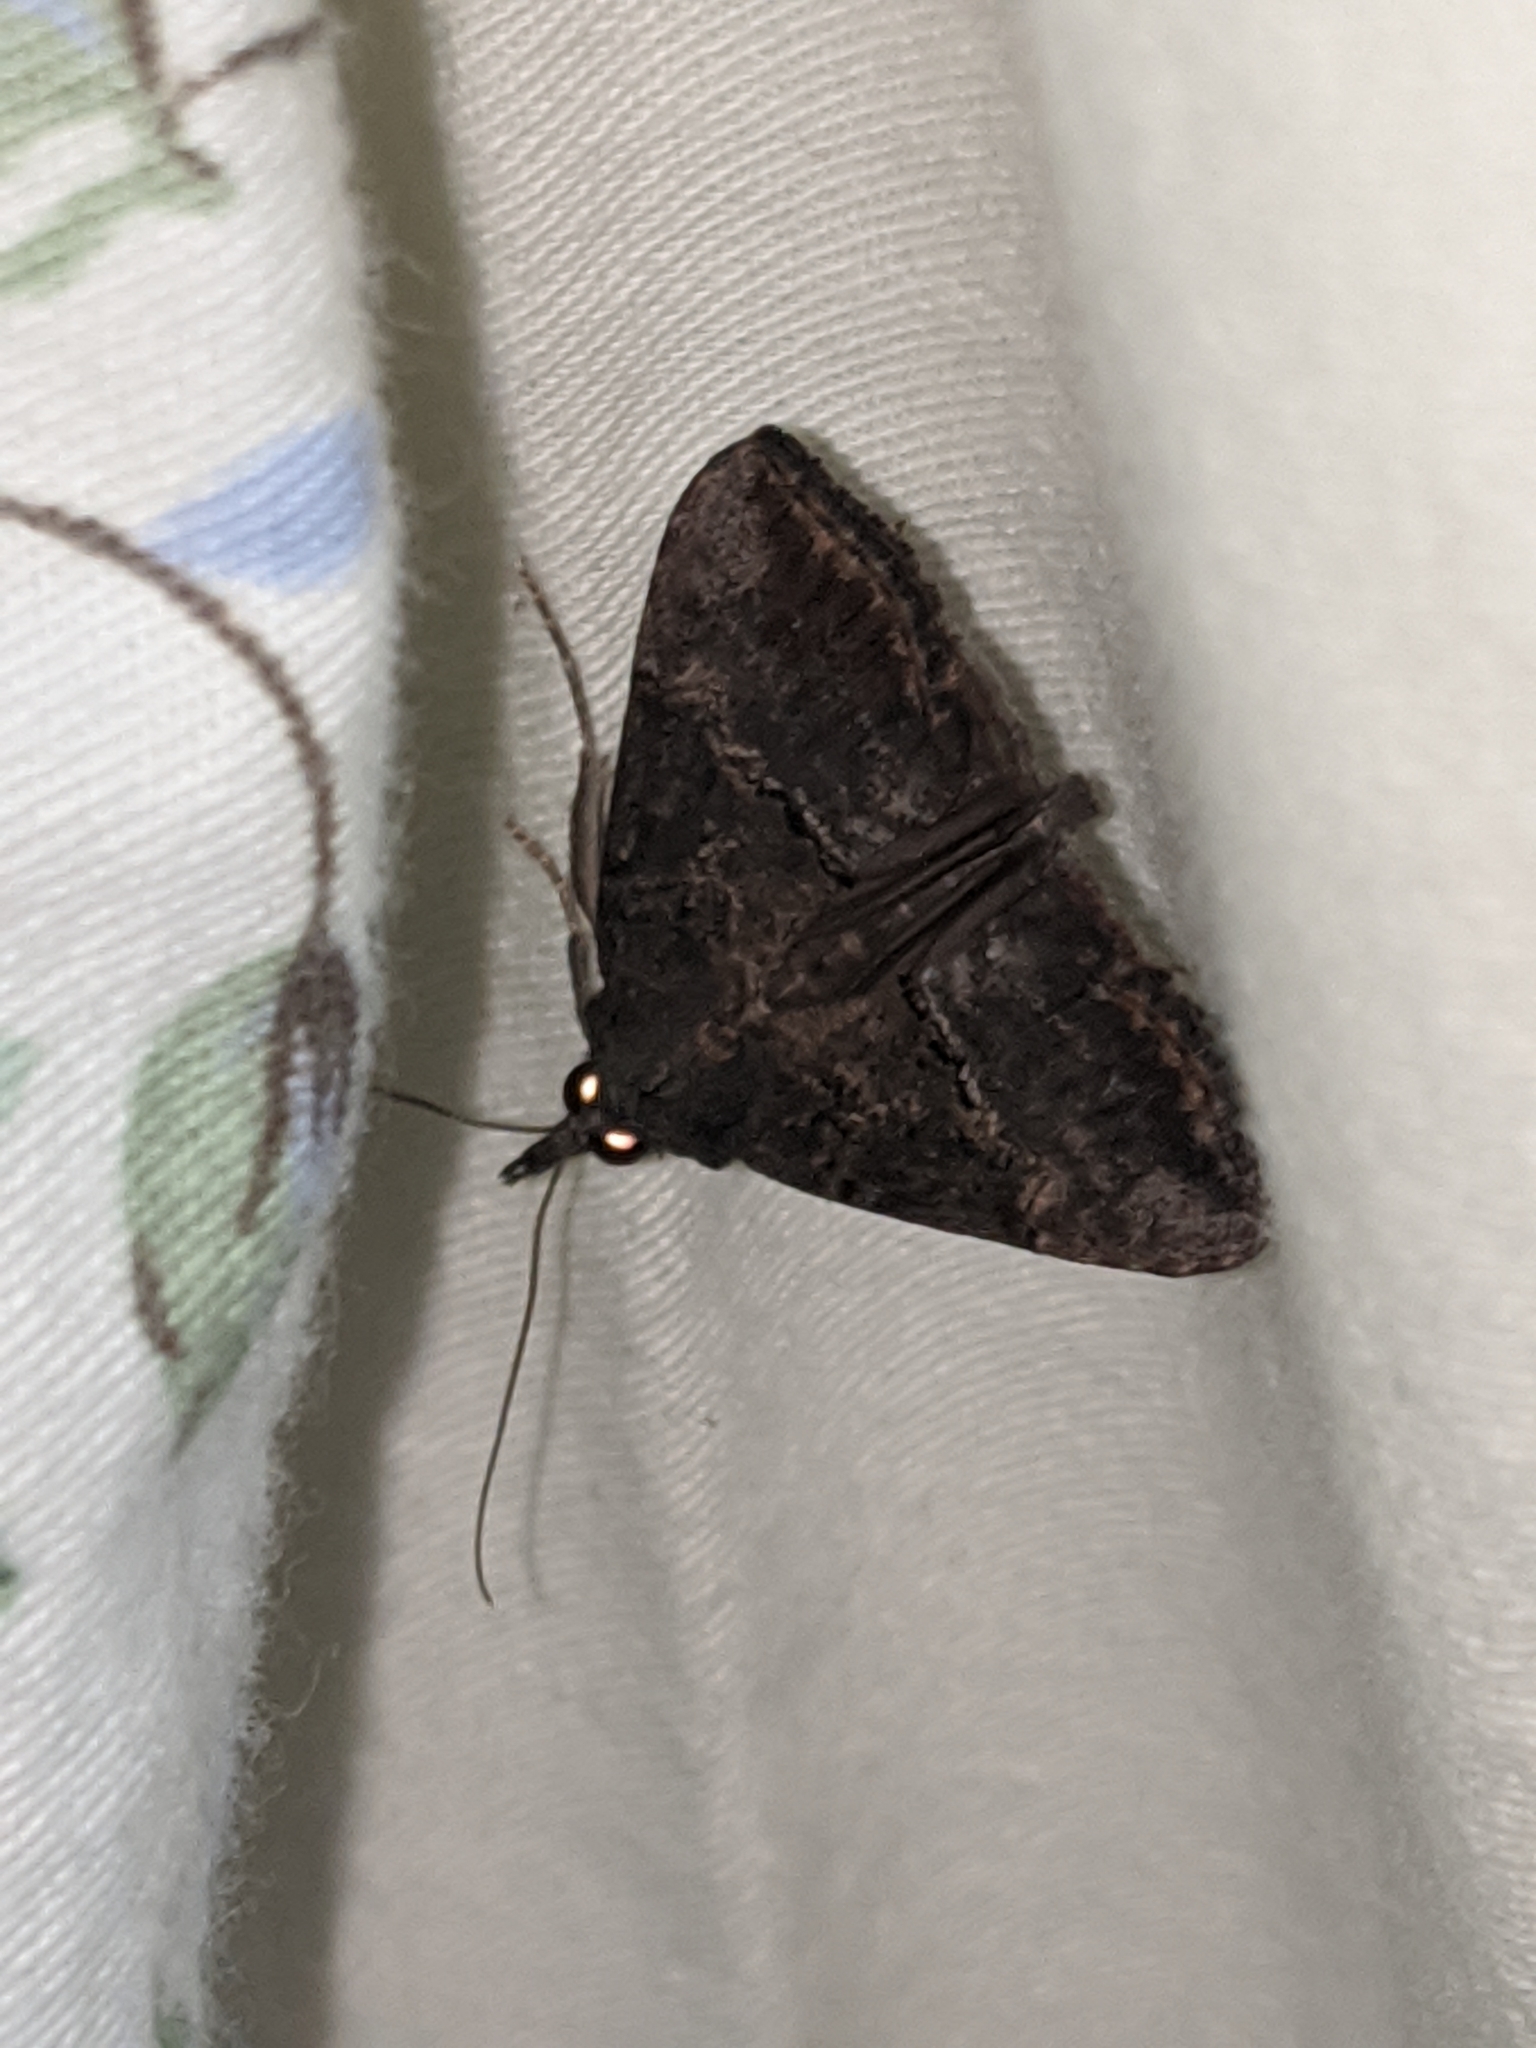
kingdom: Animalia
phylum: Arthropoda
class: Insecta
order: Lepidoptera
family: Erebidae
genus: Hypena
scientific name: Hypena scabra
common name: Green cloverworm
